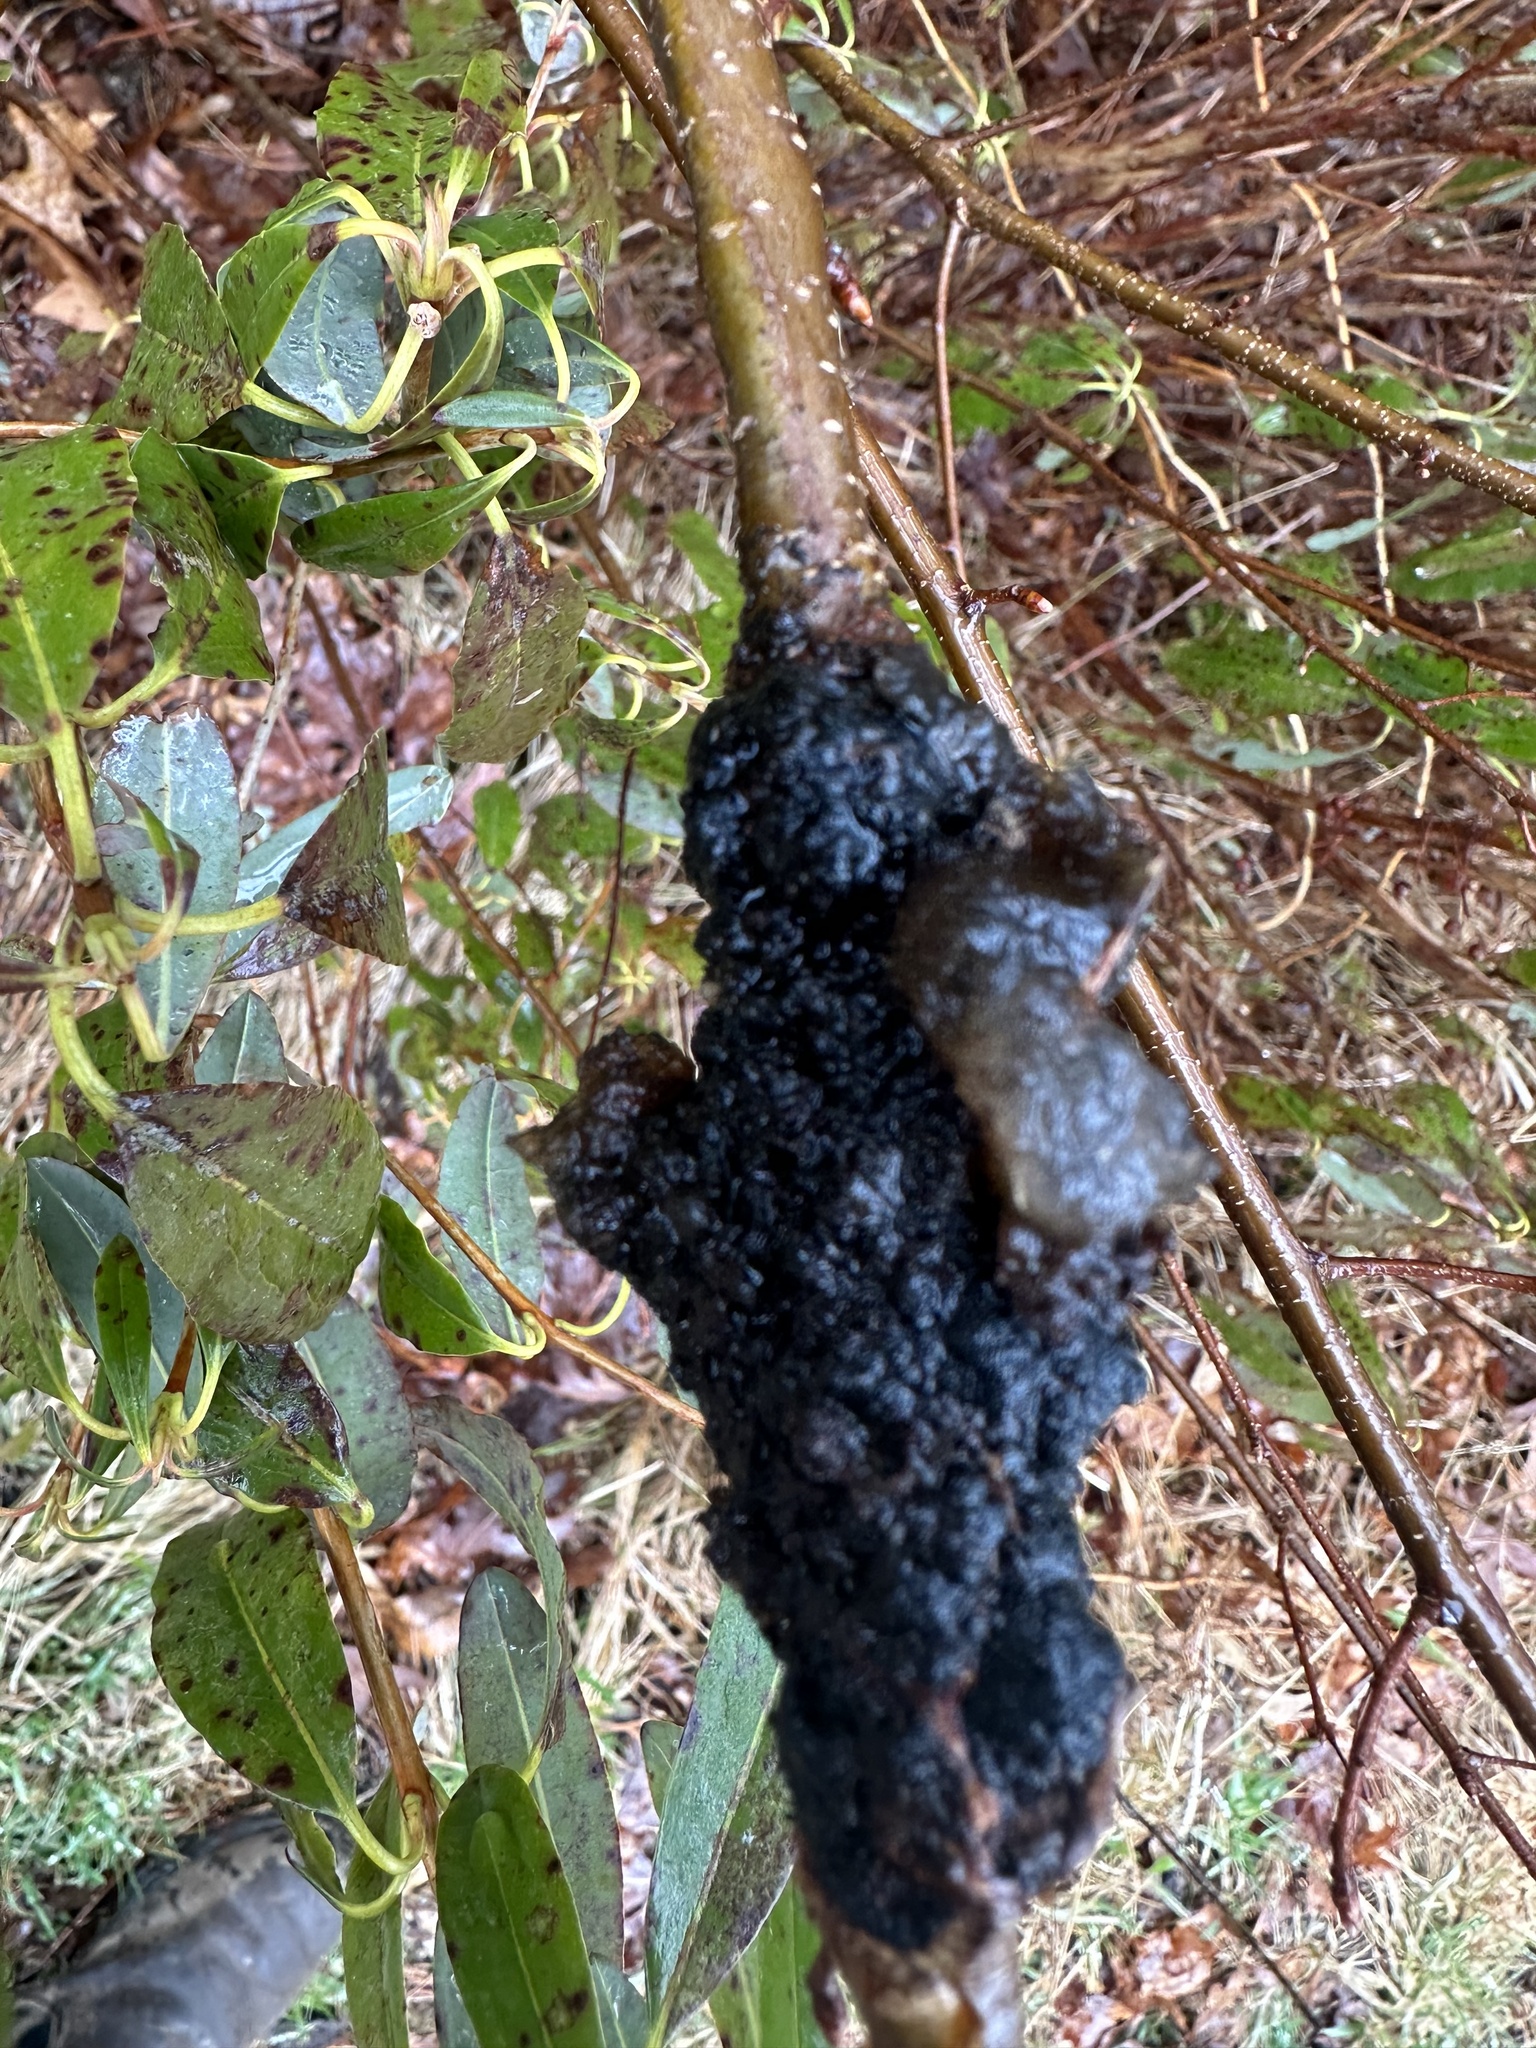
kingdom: Fungi
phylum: Ascomycota
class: Dothideomycetes
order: Venturiales
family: Venturiaceae
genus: Apiosporina
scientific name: Apiosporina morbosa
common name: Black knot
